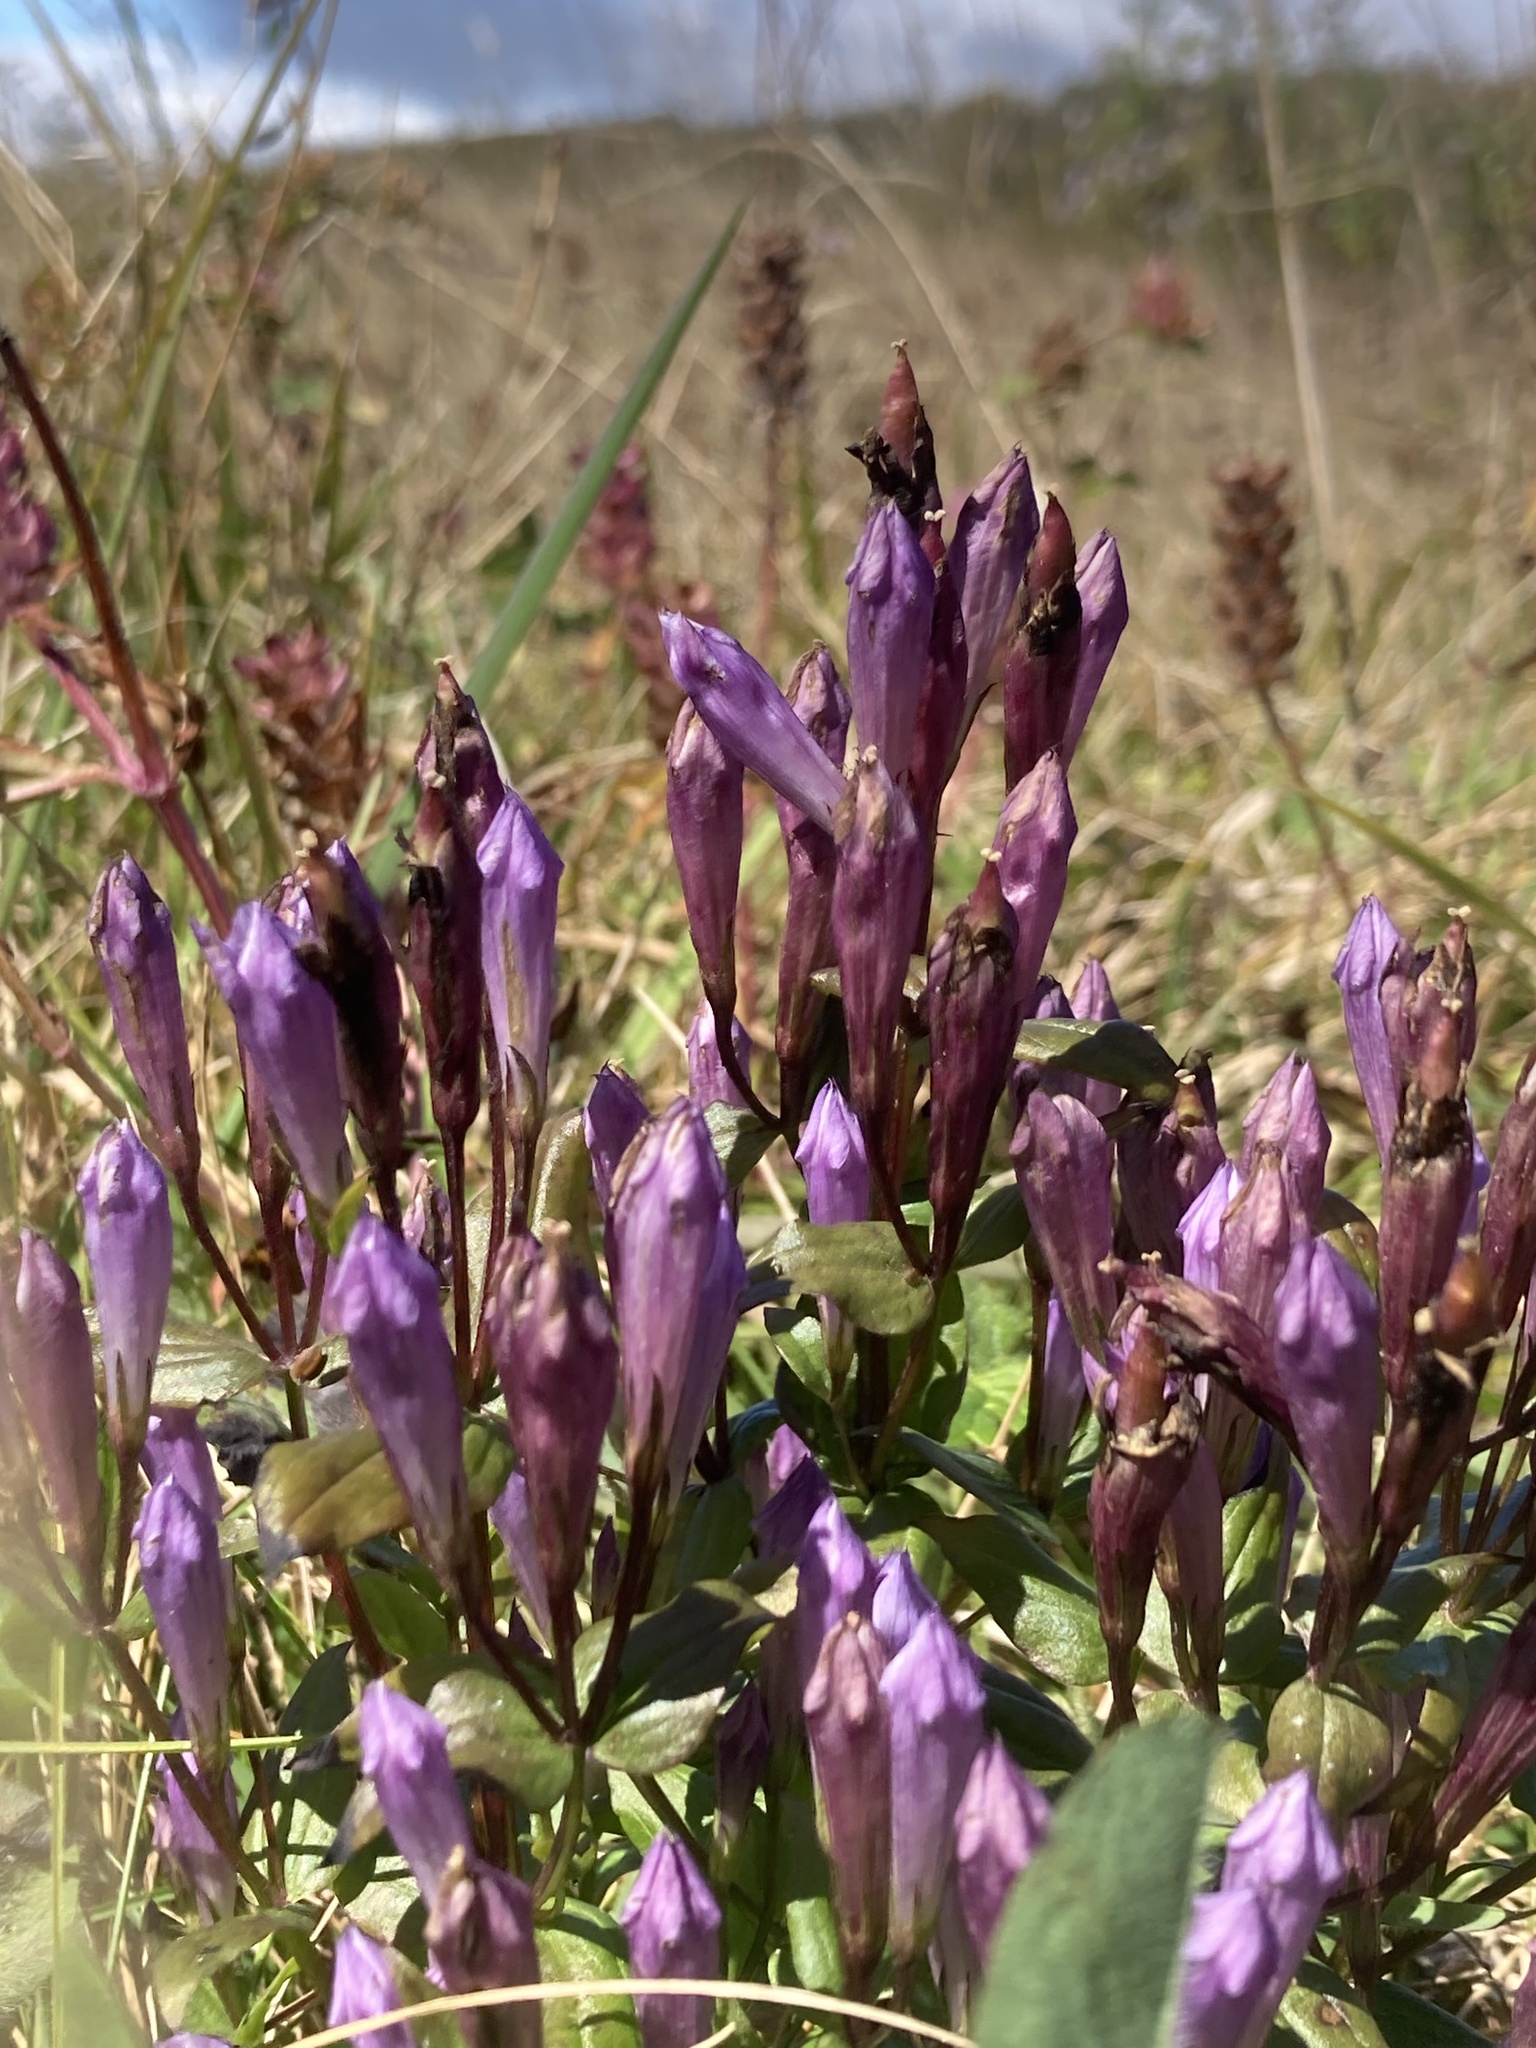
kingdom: Plantae
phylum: Tracheophyta
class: Magnoliopsida
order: Gentianales
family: Gentianaceae
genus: Gentianella
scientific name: Gentianella quinquefolia
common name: Agueweed
